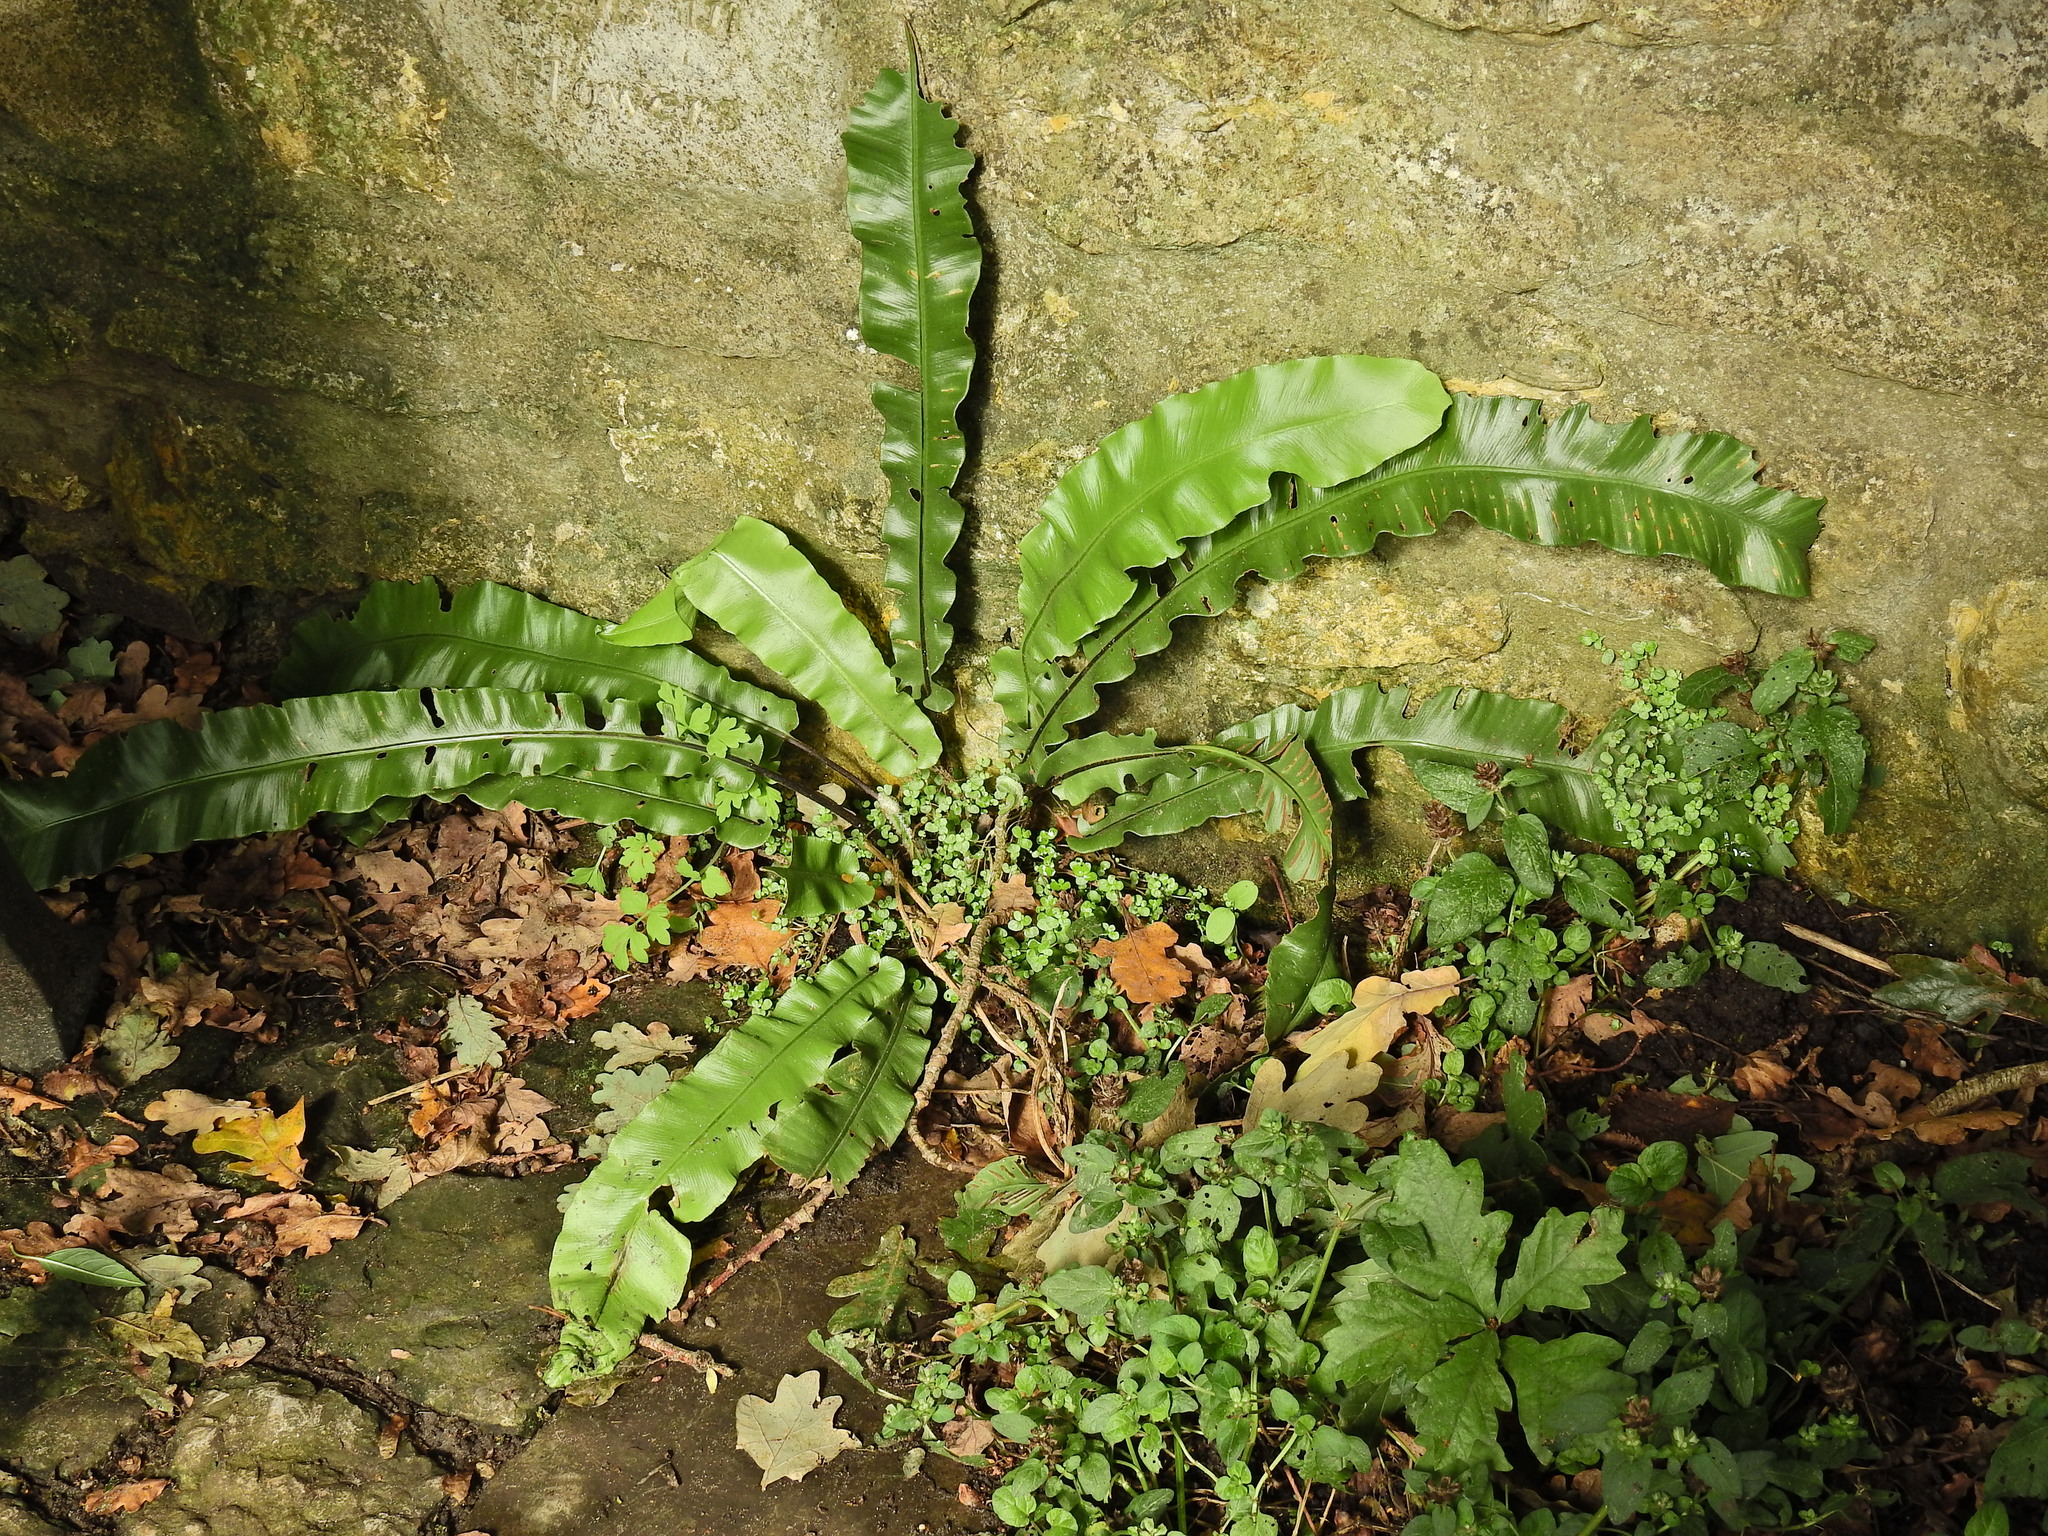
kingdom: Plantae
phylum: Tracheophyta
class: Polypodiopsida
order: Polypodiales
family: Aspleniaceae
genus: Asplenium
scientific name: Asplenium scolopendrium
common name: Hart's-tongue fern
